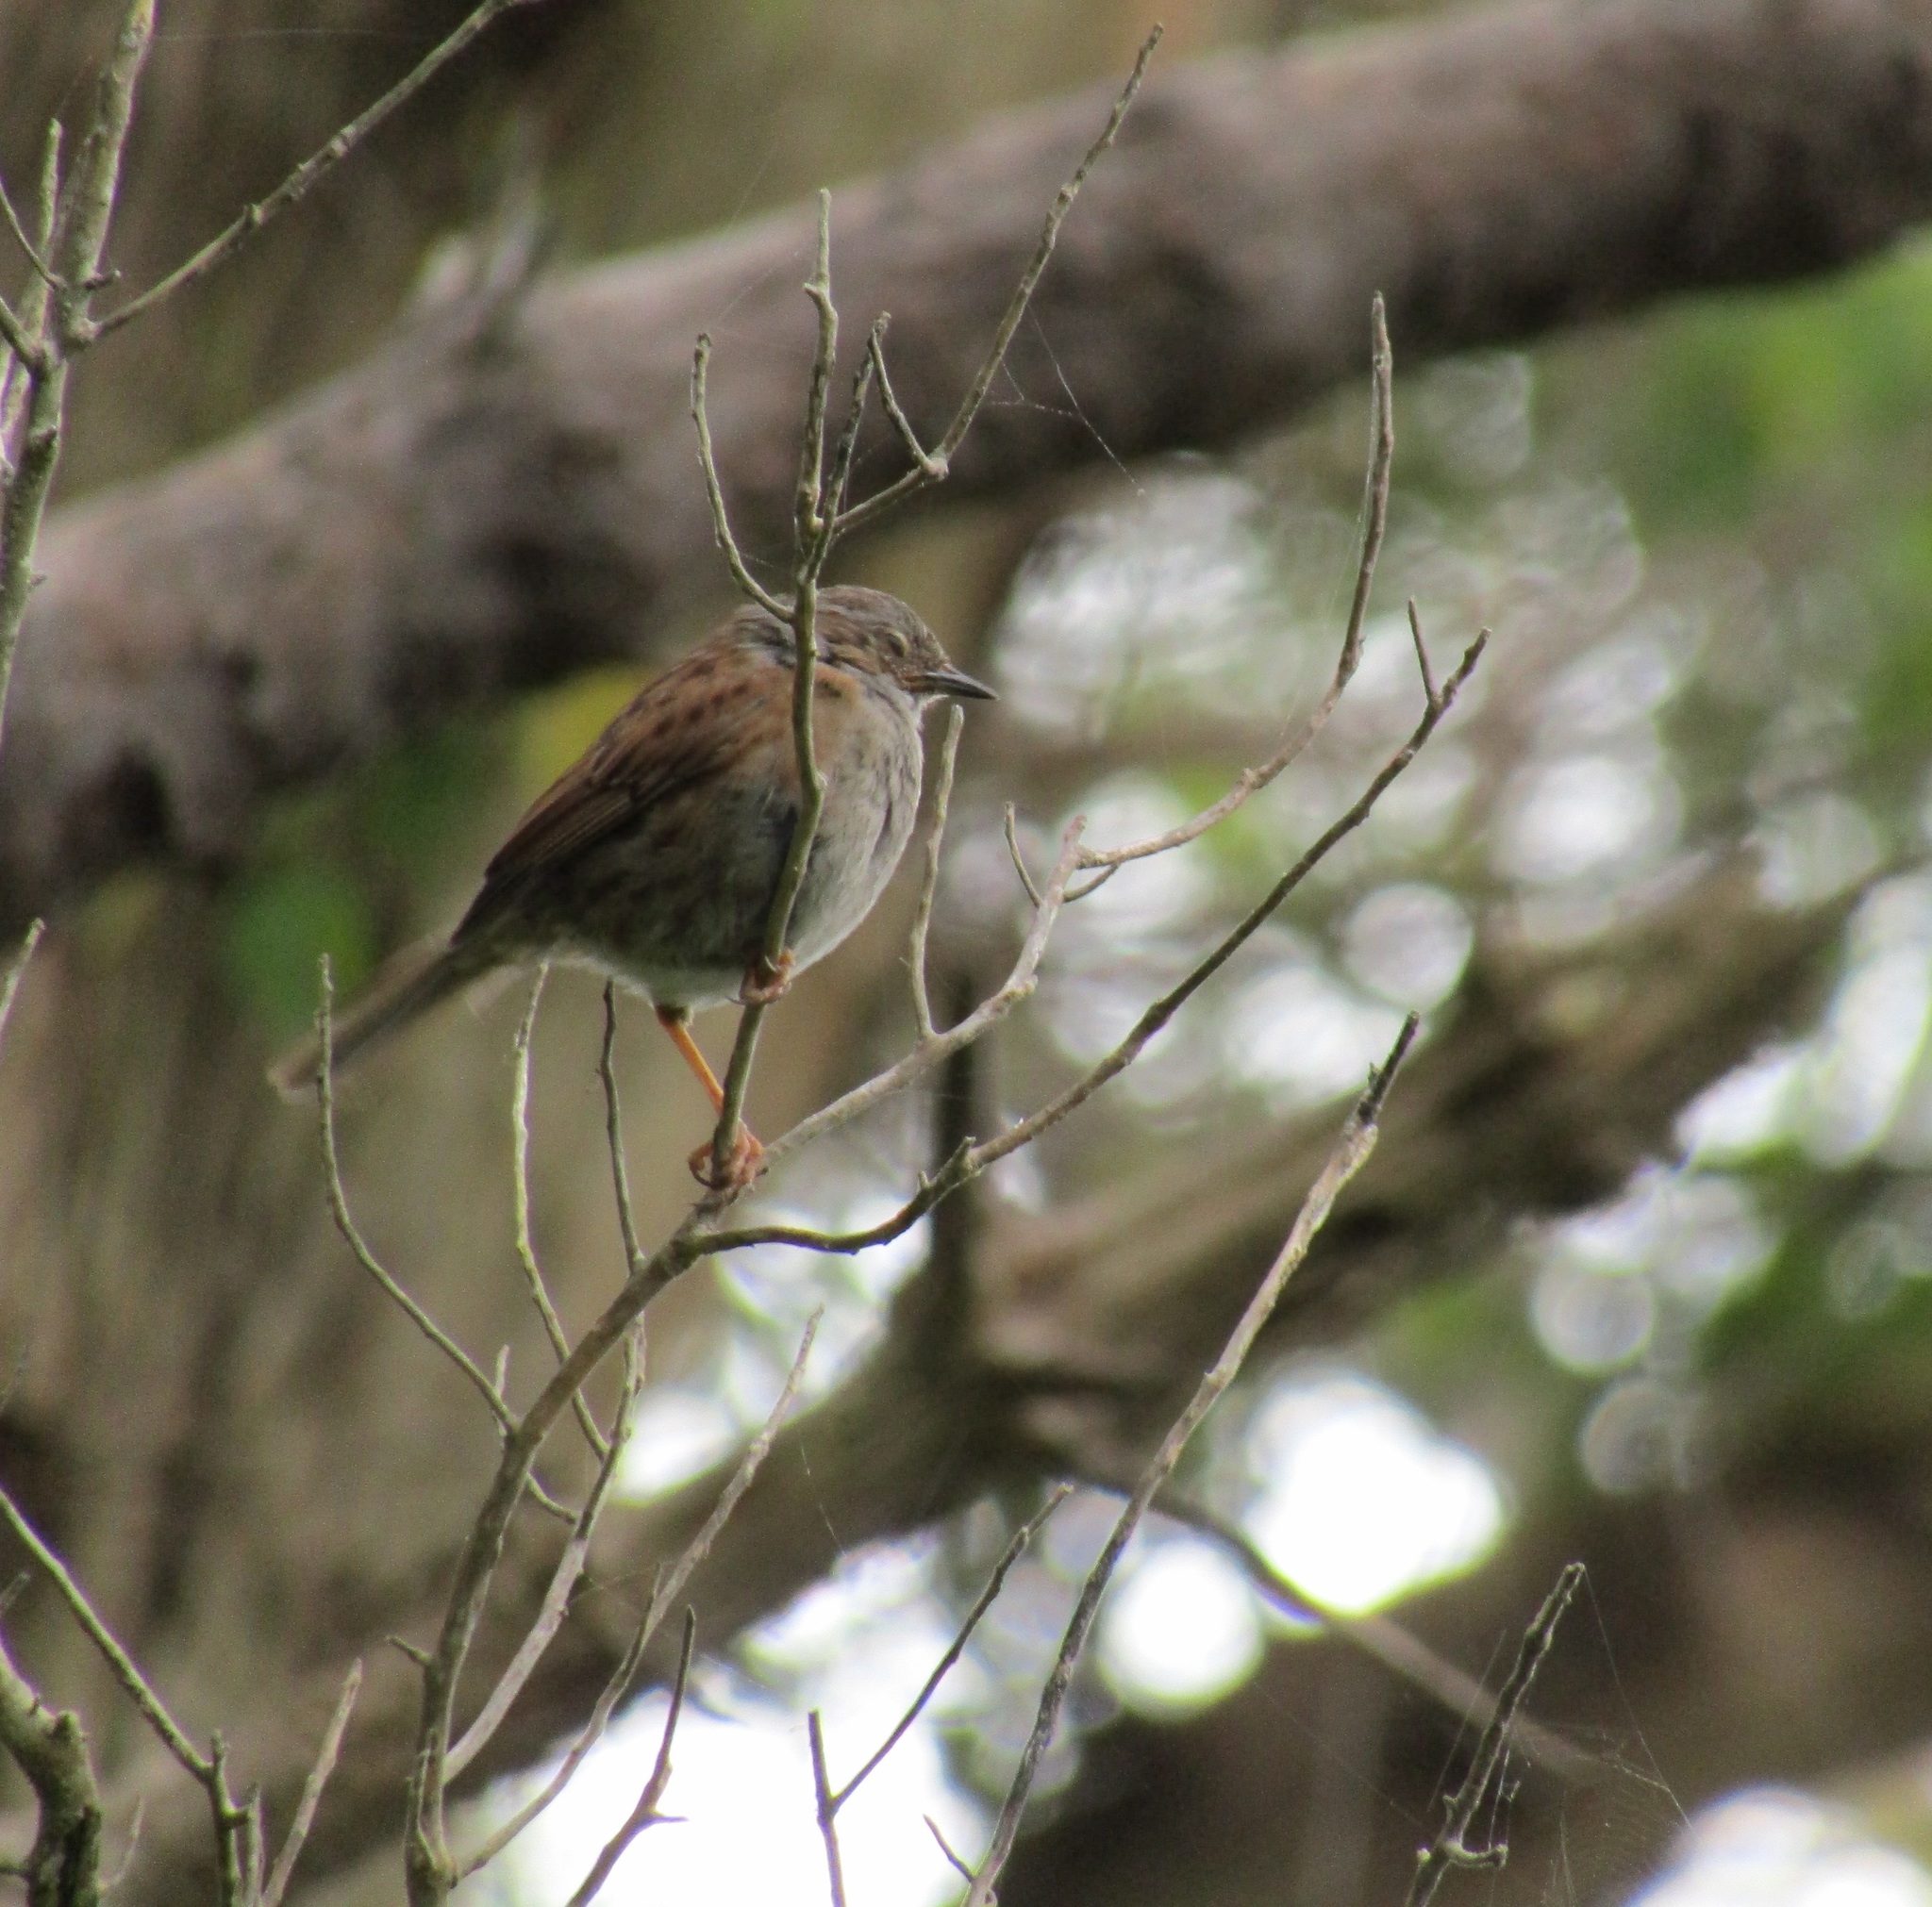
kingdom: Animalia
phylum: Chordata
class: Aves
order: Passeriformes
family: Prunellidae
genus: Prunella
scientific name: Prunella modularis
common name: Dunnock
